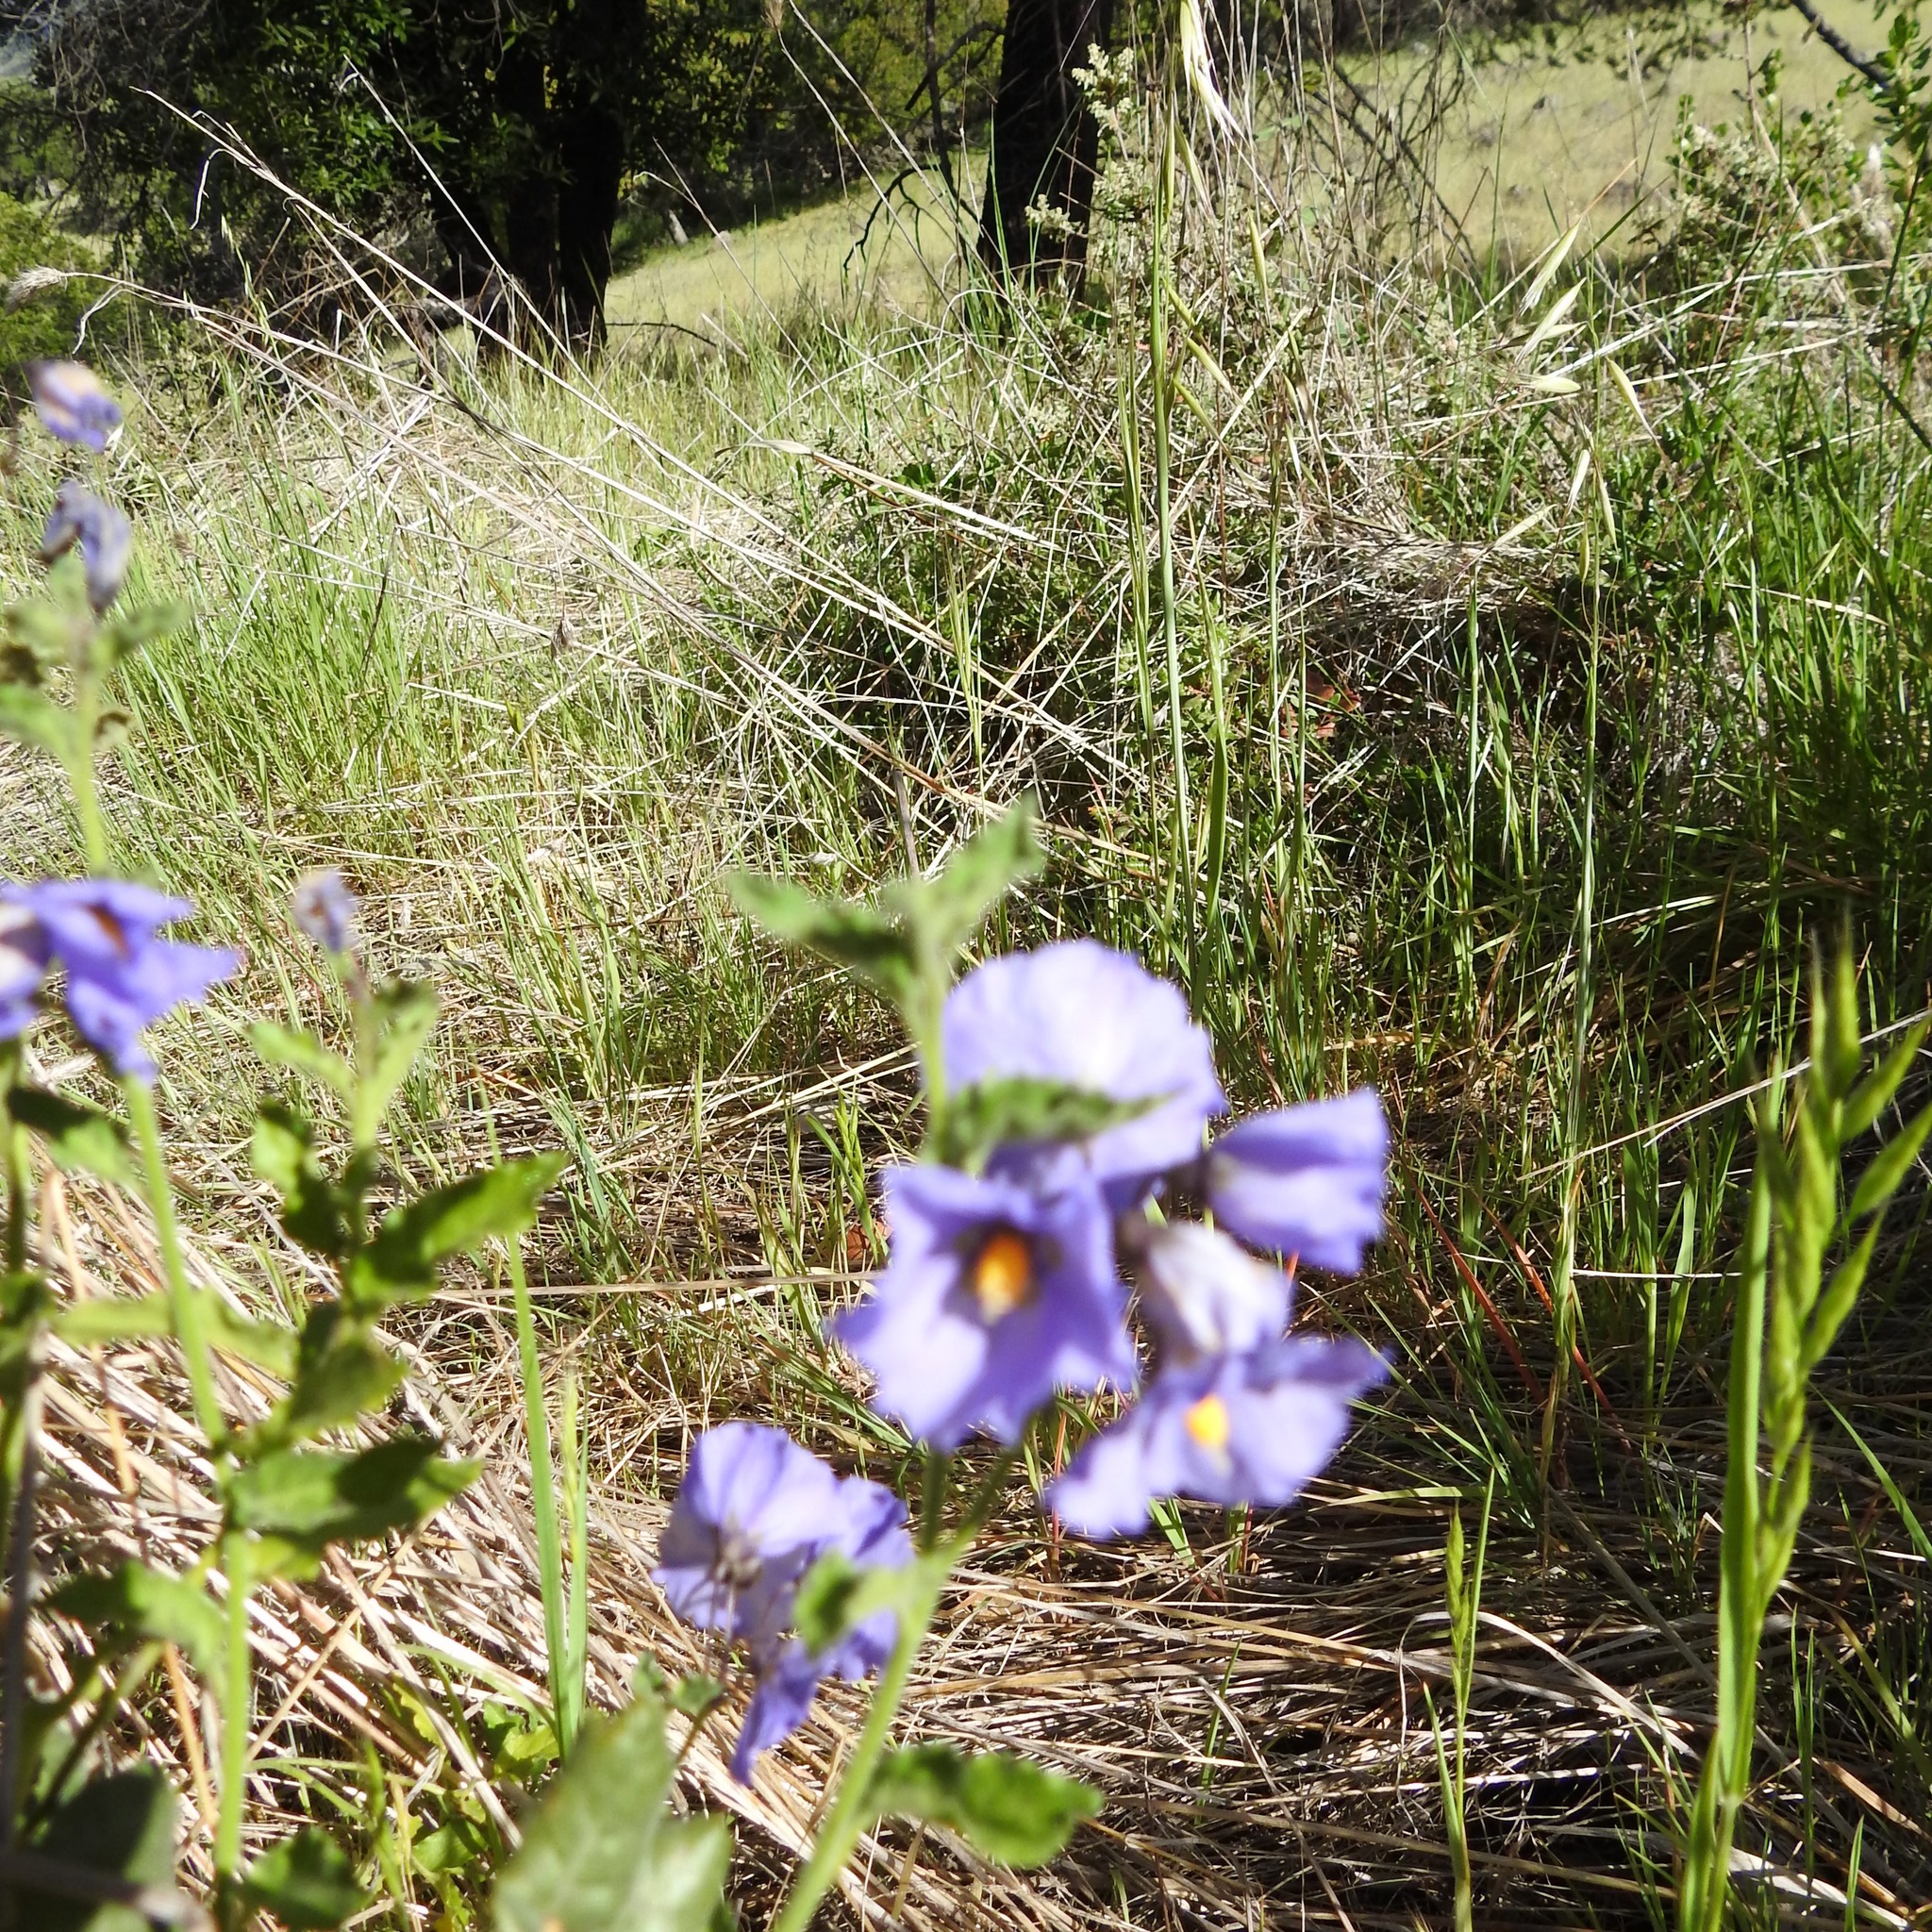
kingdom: Plantae
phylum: Tracheophyta
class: Magnoliopsida
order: Solanales
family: Solanaceae
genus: Solanum
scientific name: Solanum umbelliferum
